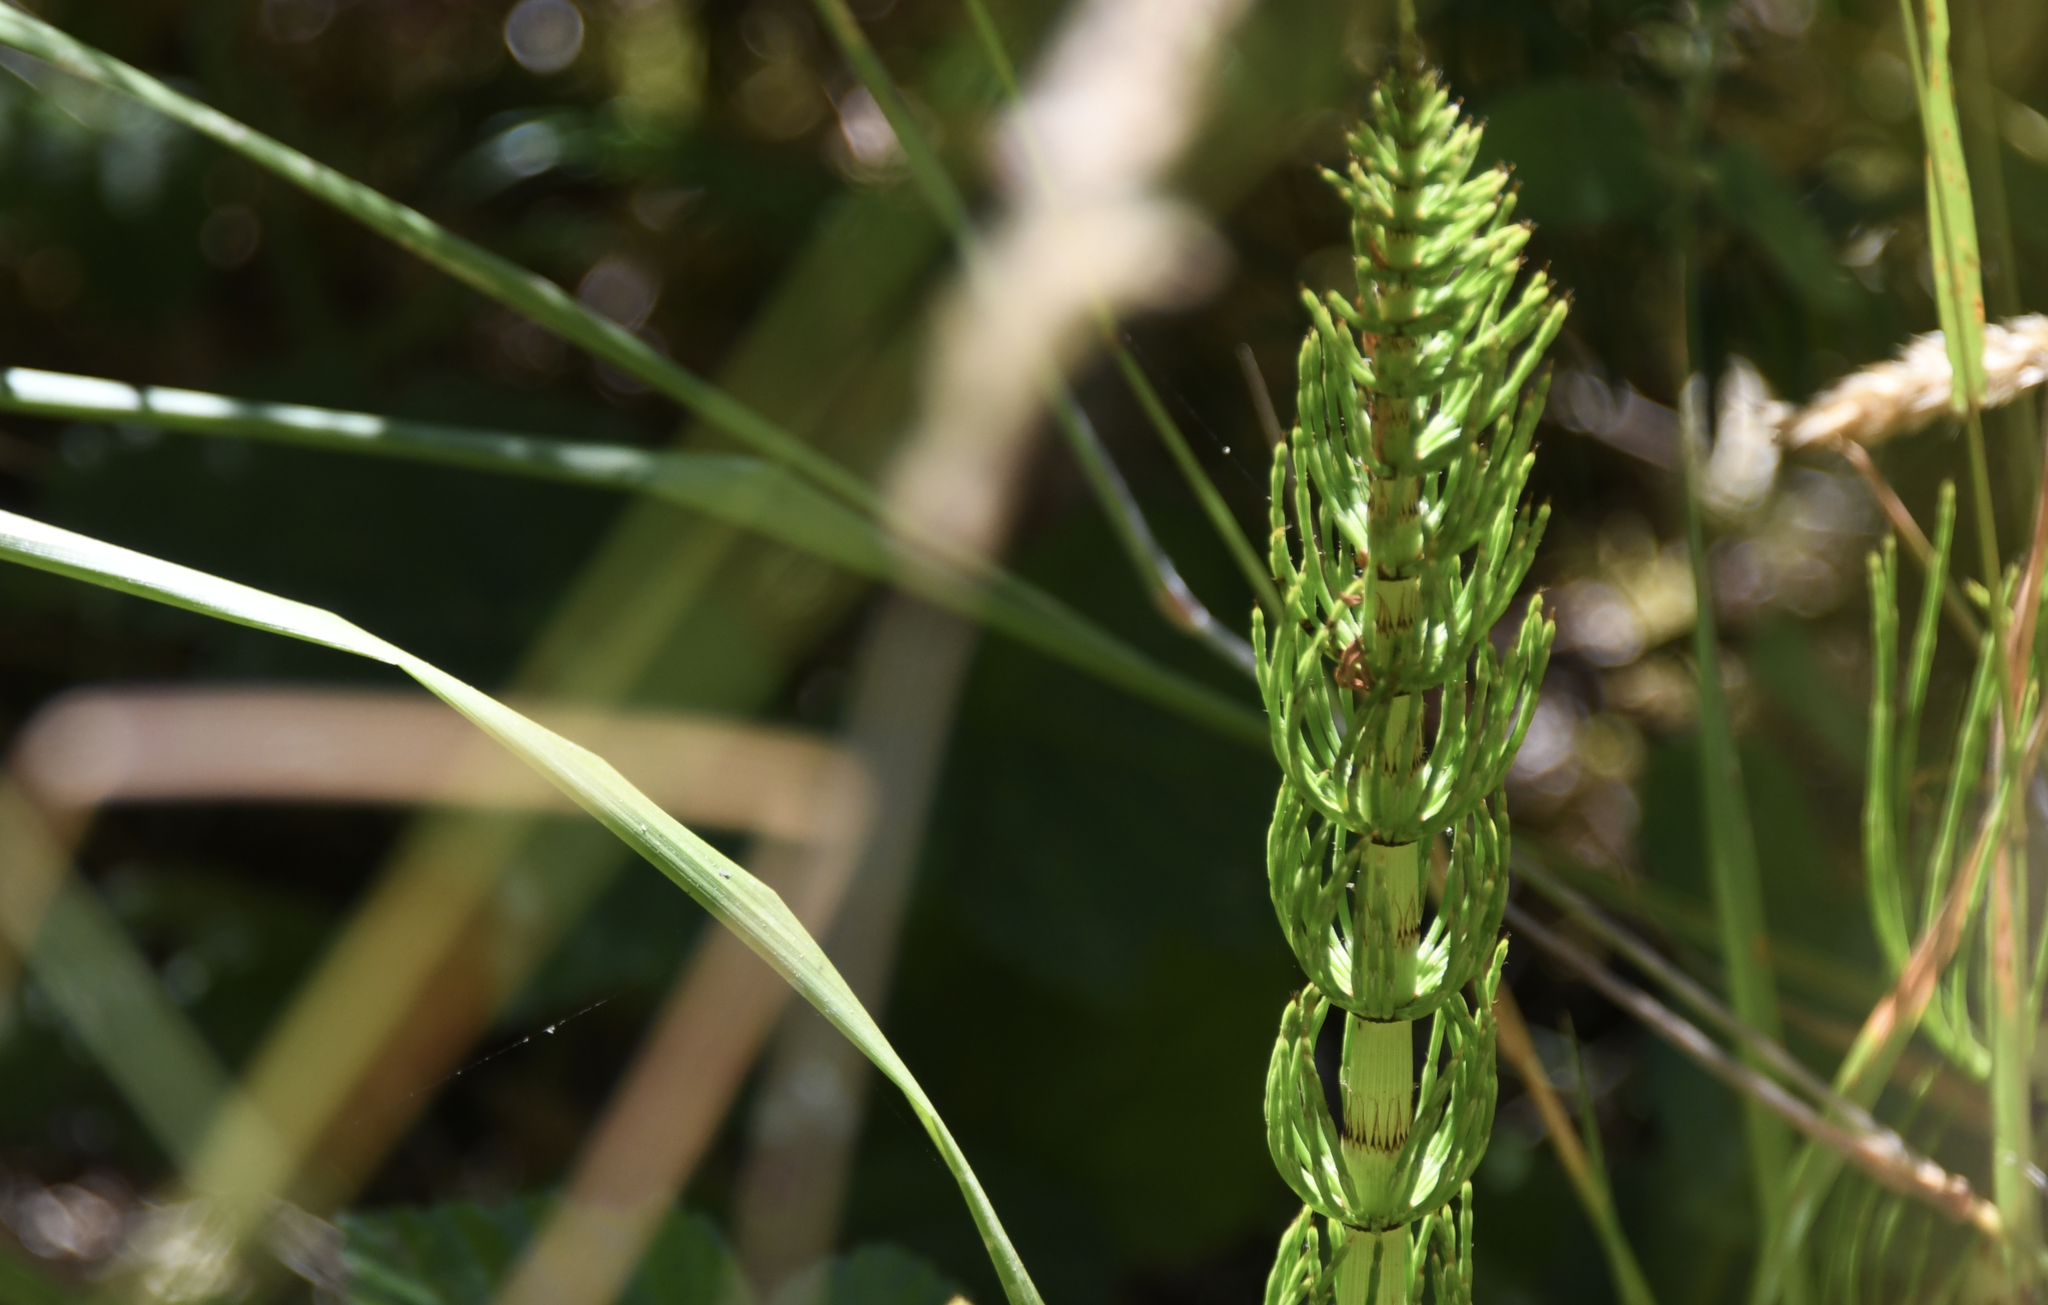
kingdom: Plantae
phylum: Tracheophyta
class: Polypodiopsida
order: Equisetales
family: Equisetaceae
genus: Equisetum
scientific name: Equisetum telmateia
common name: Great horsetail
